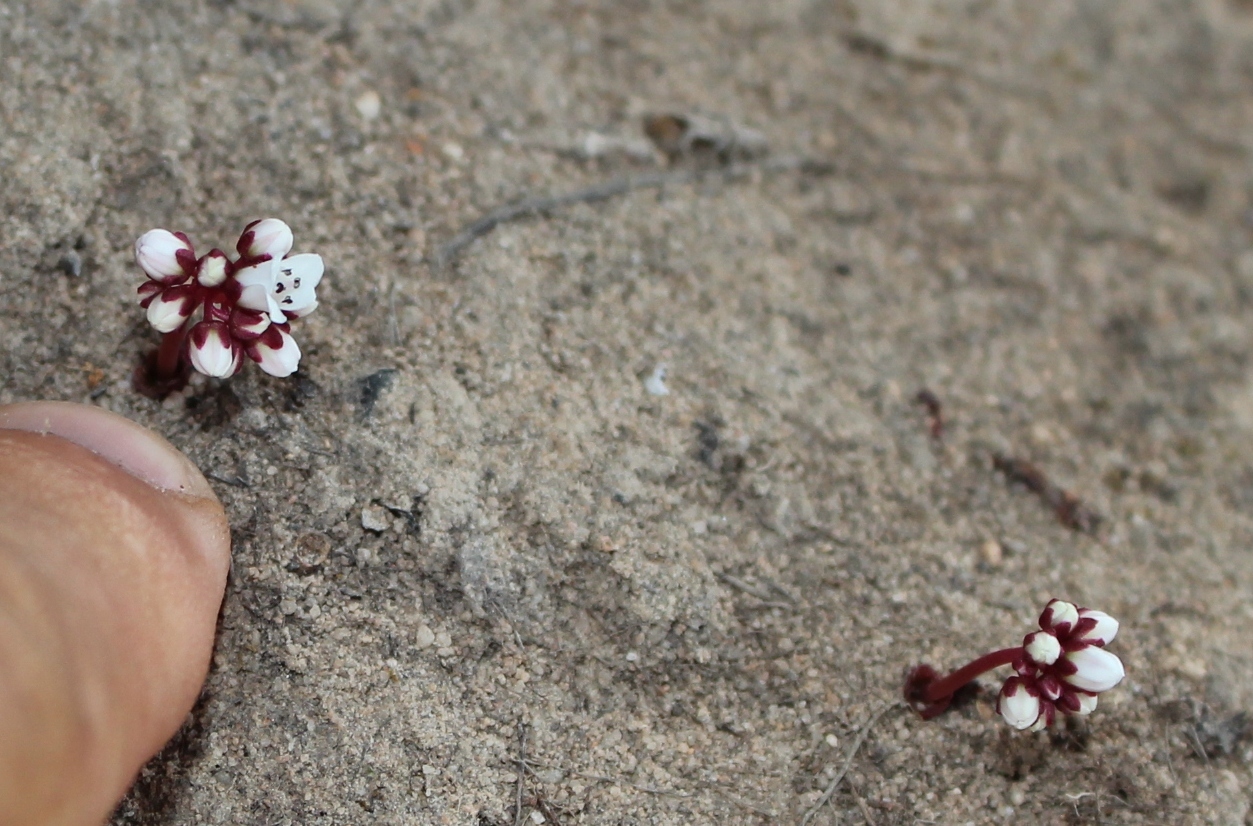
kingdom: Plantae
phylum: Tracheophyta
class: Magnoliopsida
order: Saxifragales
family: Crassulaceae
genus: Crassula
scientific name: Crassula saxifraga
